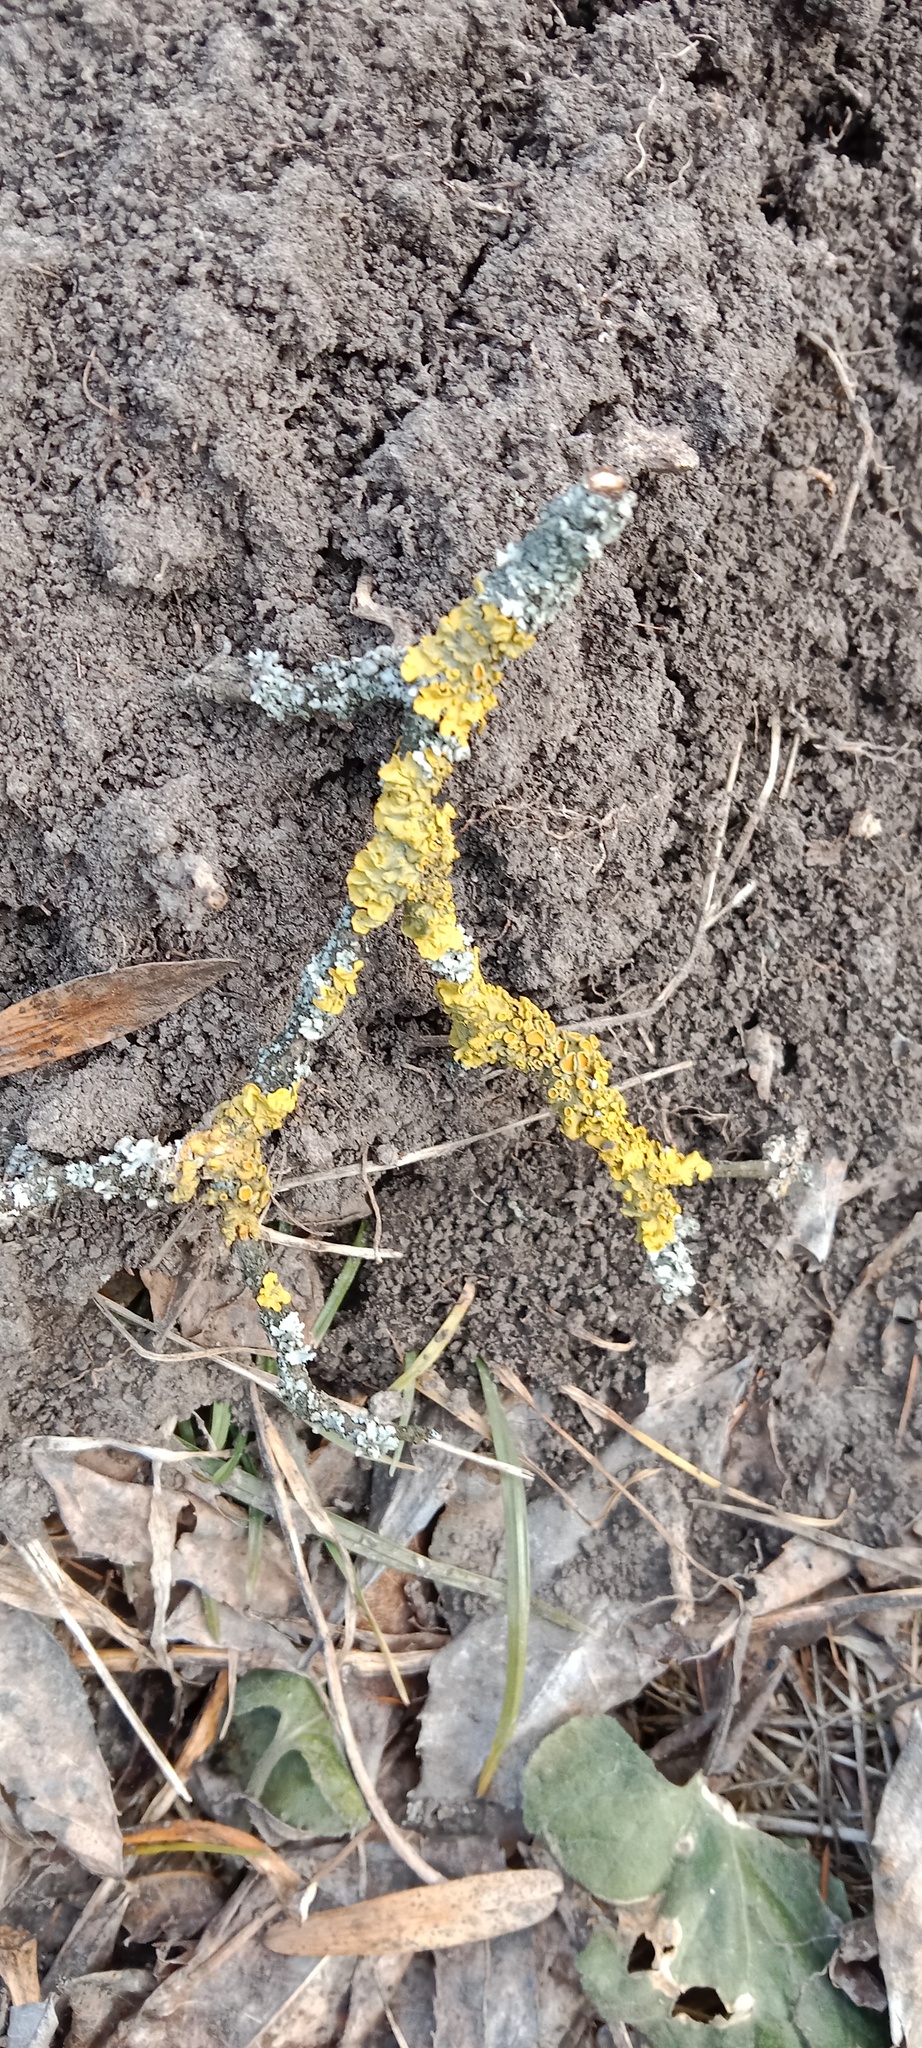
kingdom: Fungi
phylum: Ascomycota
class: Lecanoromycetes
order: Teloschistales
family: Teloschistaceae
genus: Xanthoria
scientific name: Xanthoria parietina
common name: Common orange lichen
